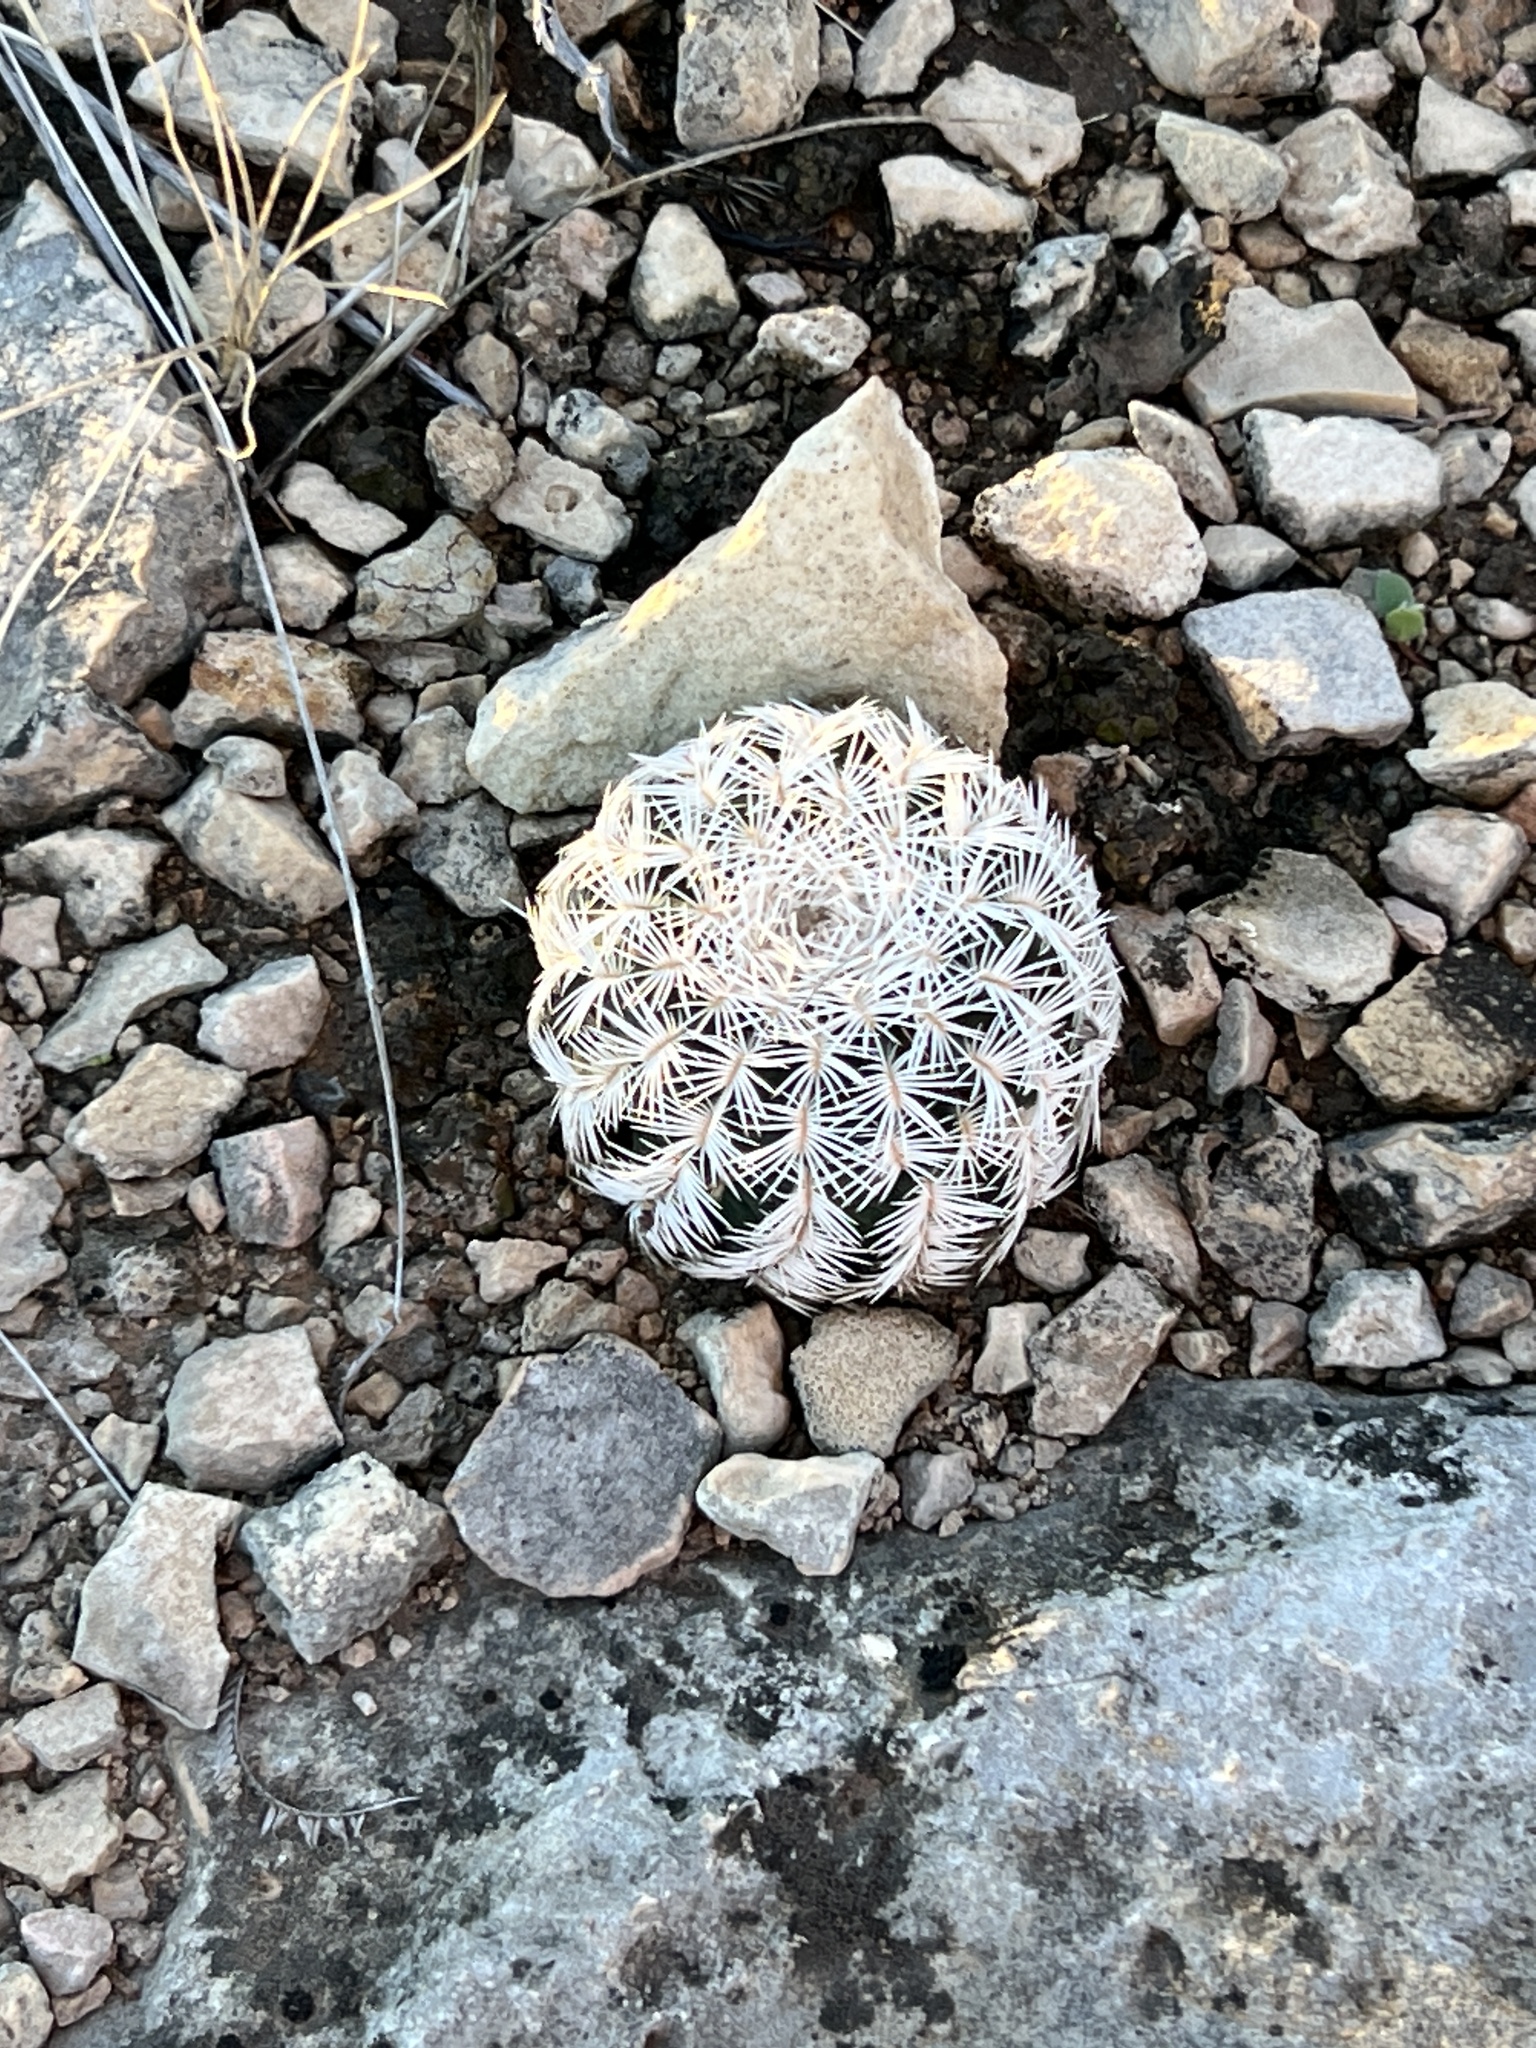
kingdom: Plantae
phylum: Tracheophyta
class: Magnoliopsida
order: Caryophyllales
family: Cactaceae
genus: Echinocereus
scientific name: Echinocereus reichenbachii
